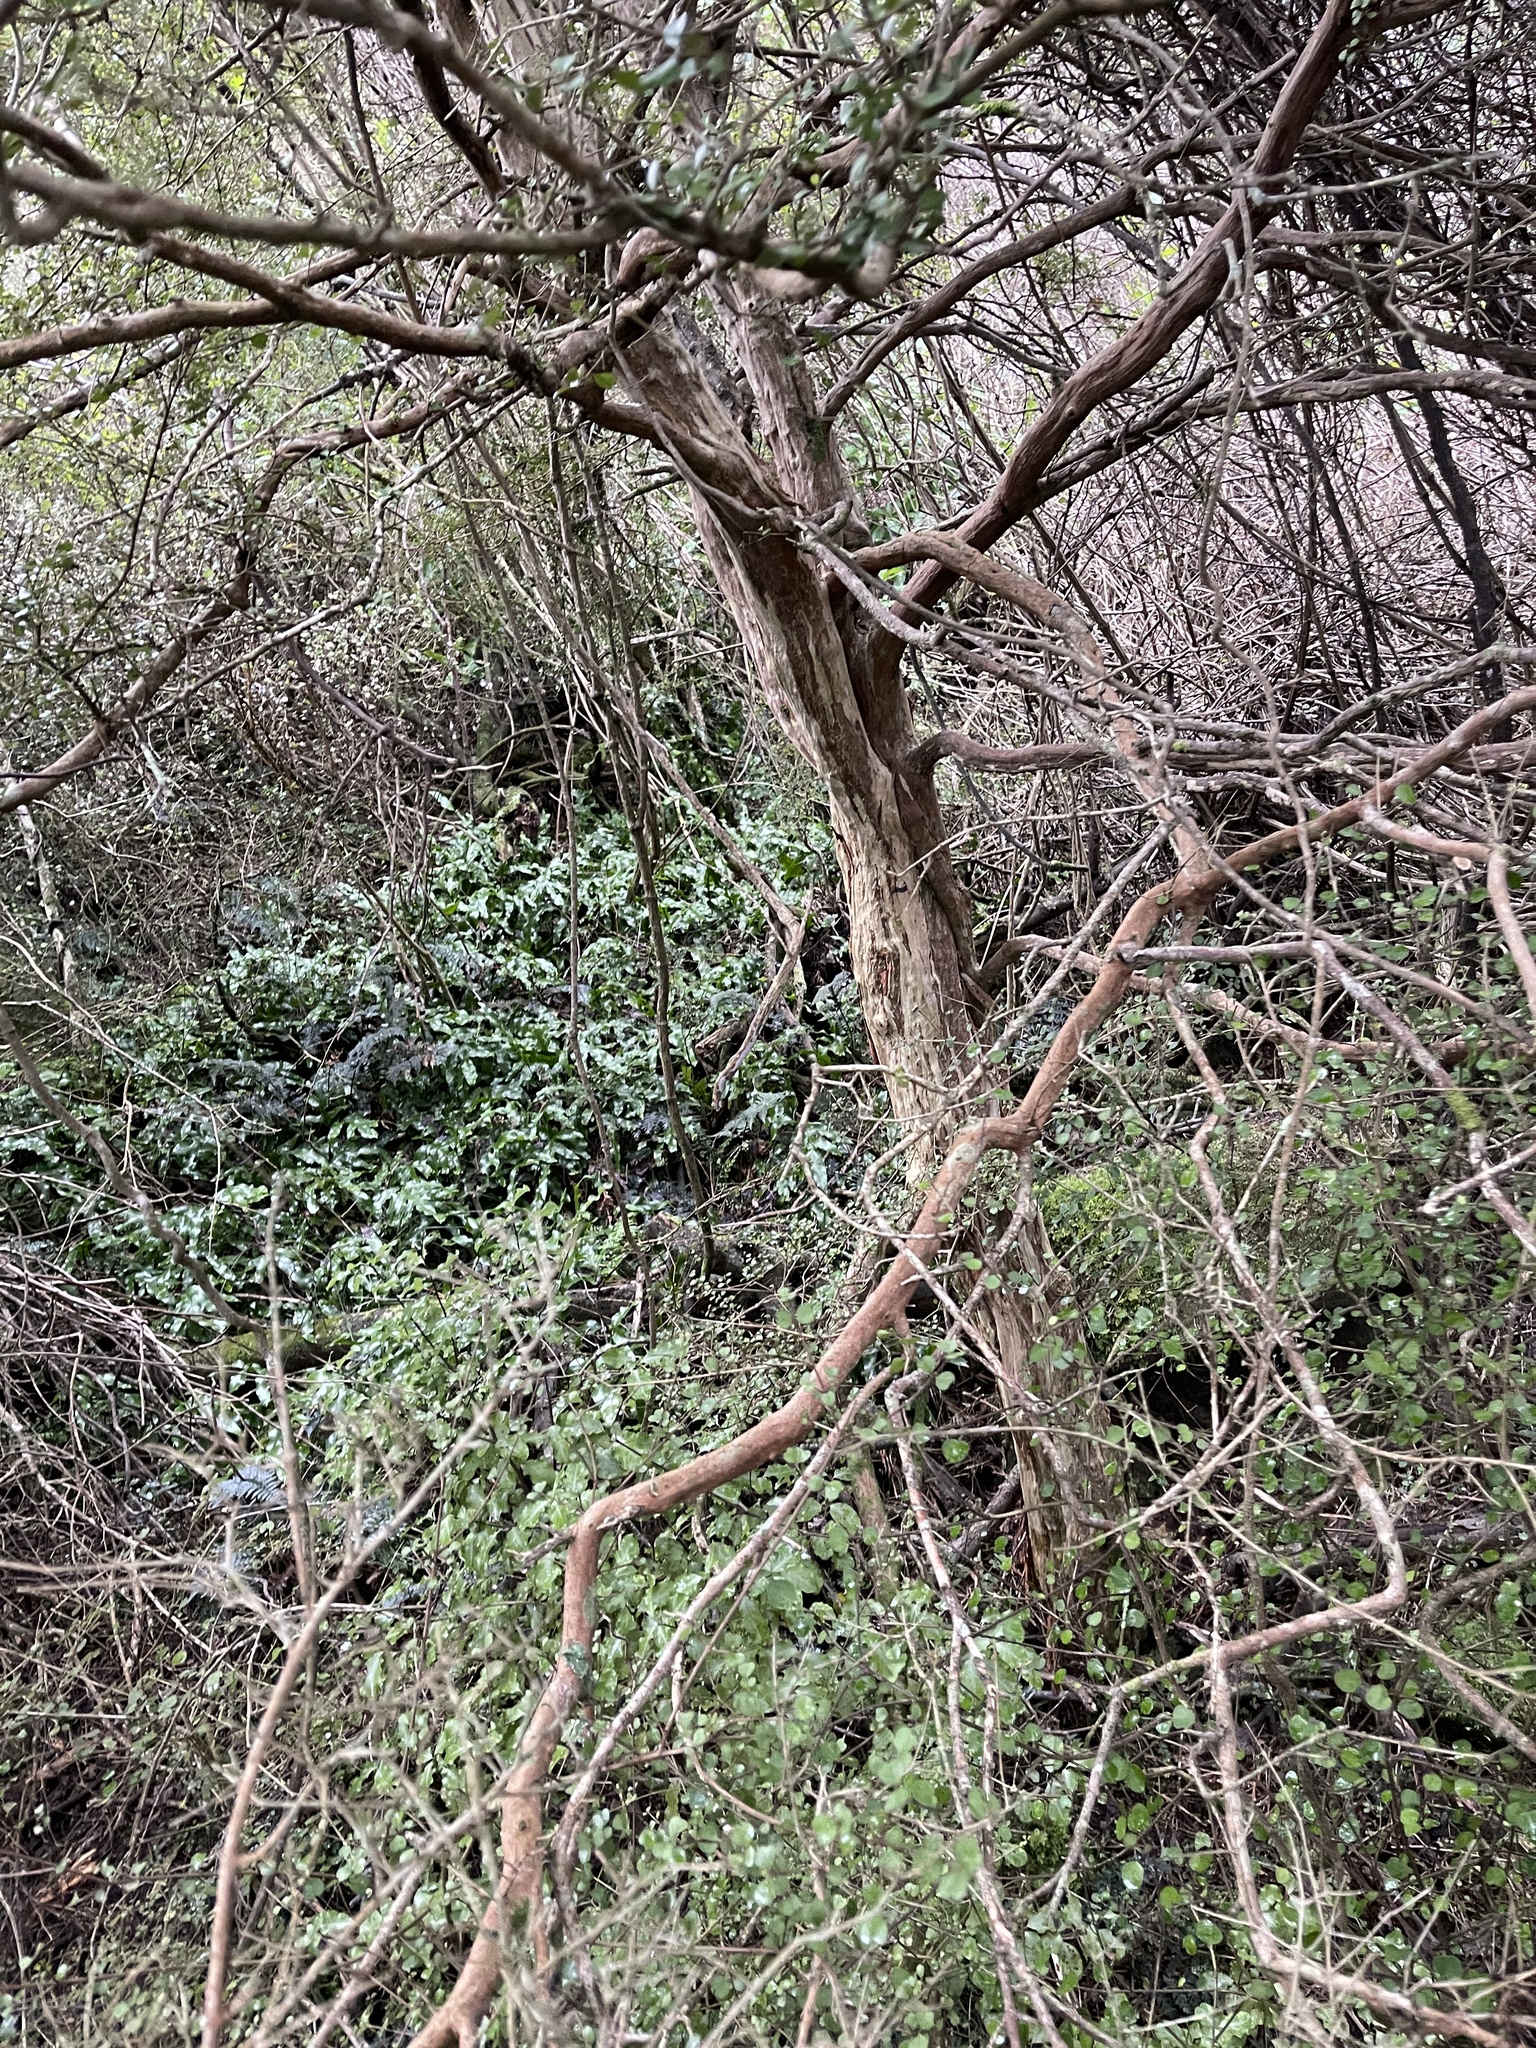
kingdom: Plantae
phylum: Tracheophyta
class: Magnoliopsida
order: Myrtales
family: Myrtaceae
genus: Lophomyrtus
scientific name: Lophomyrtus obcordata
